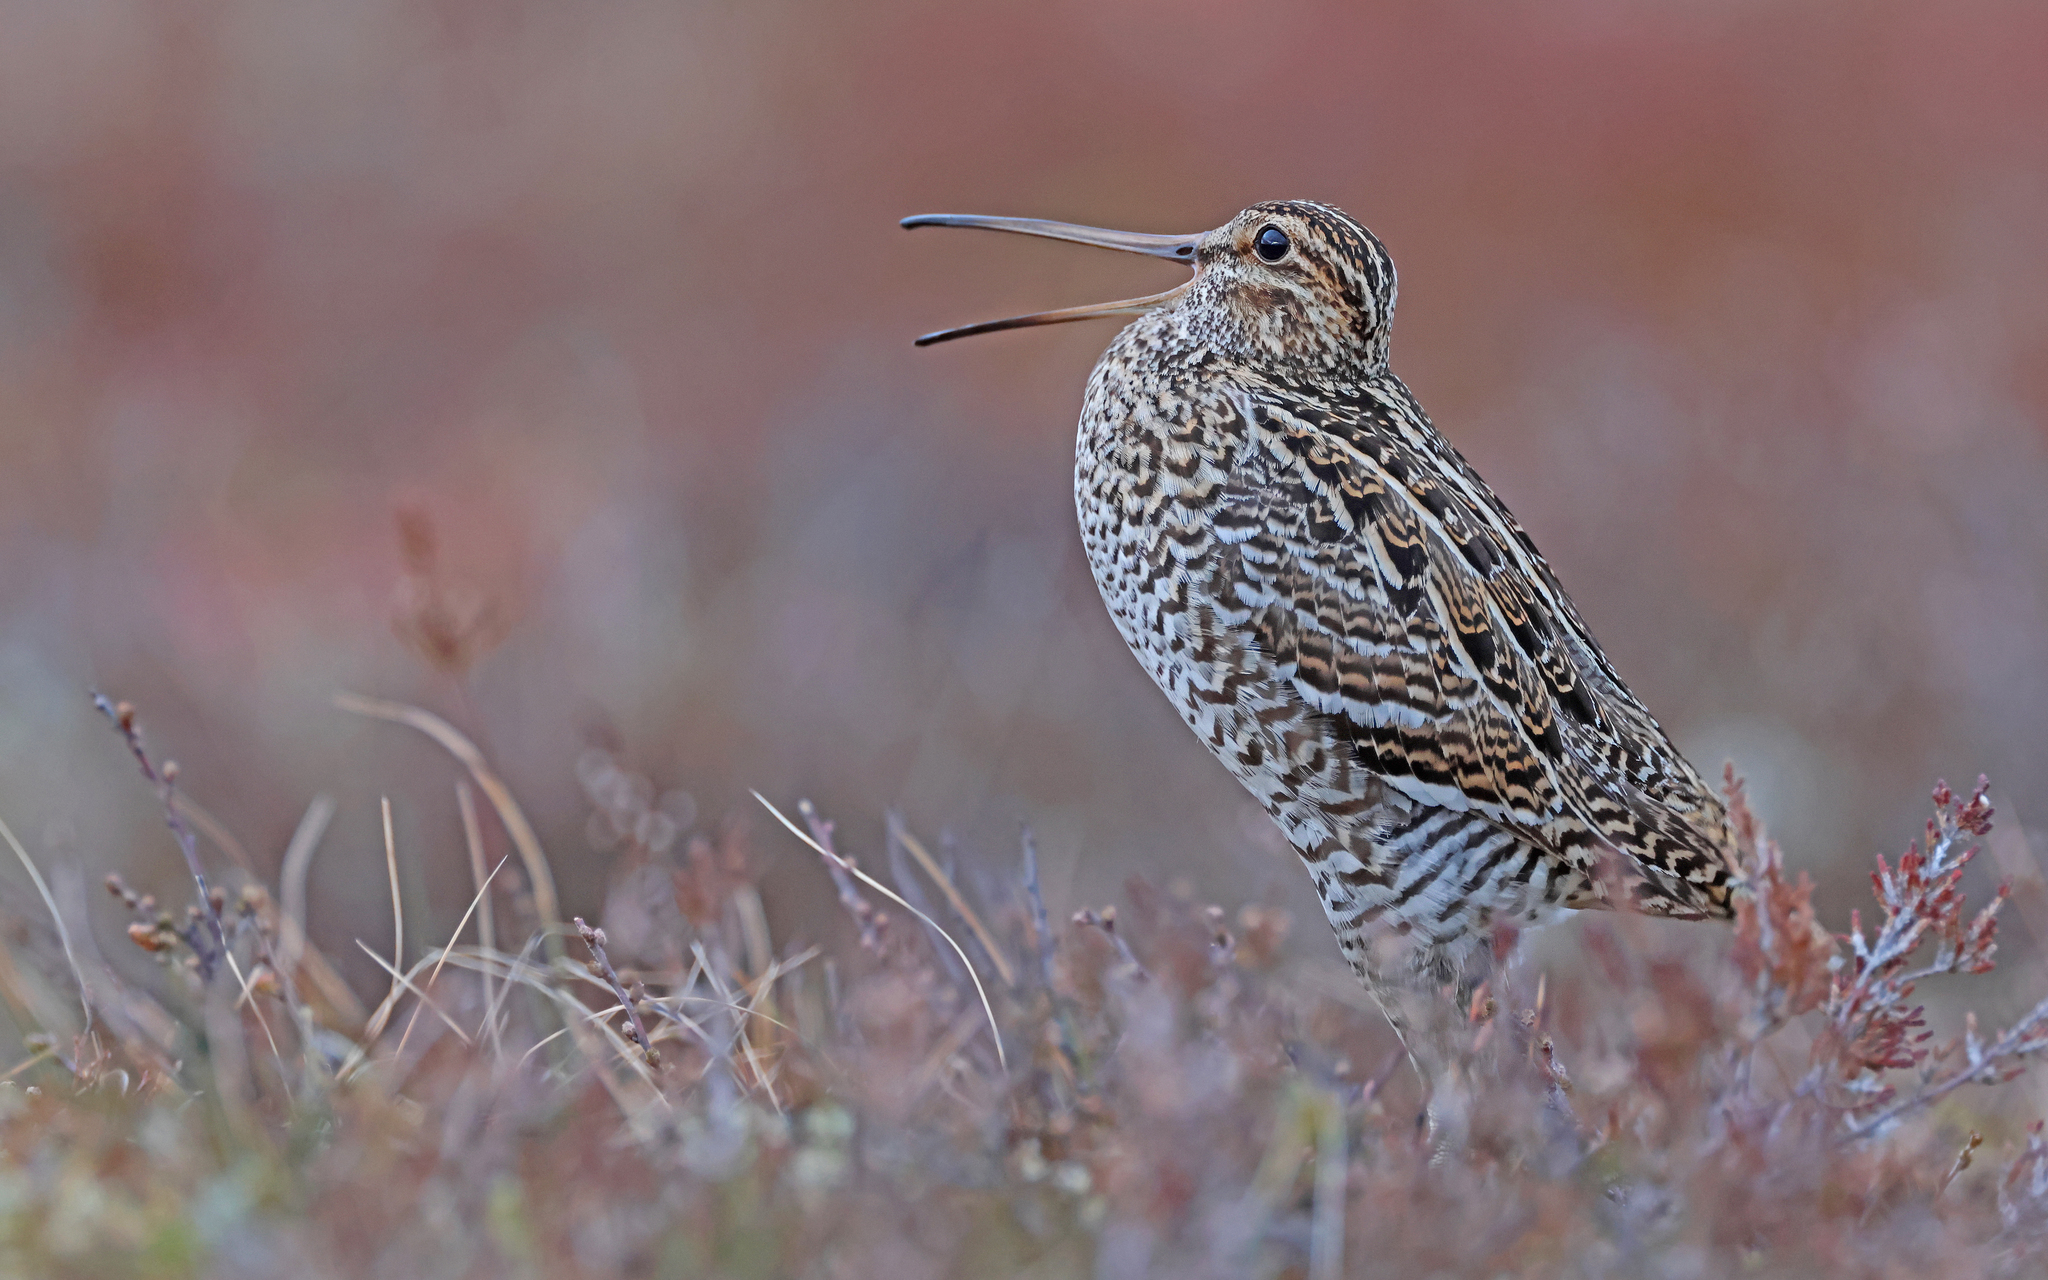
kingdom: Animalia
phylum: Chordata
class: Aves
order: Charadriiformes
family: Scolopacidae
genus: Gallinago
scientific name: Gallinago media
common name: Great snipe
